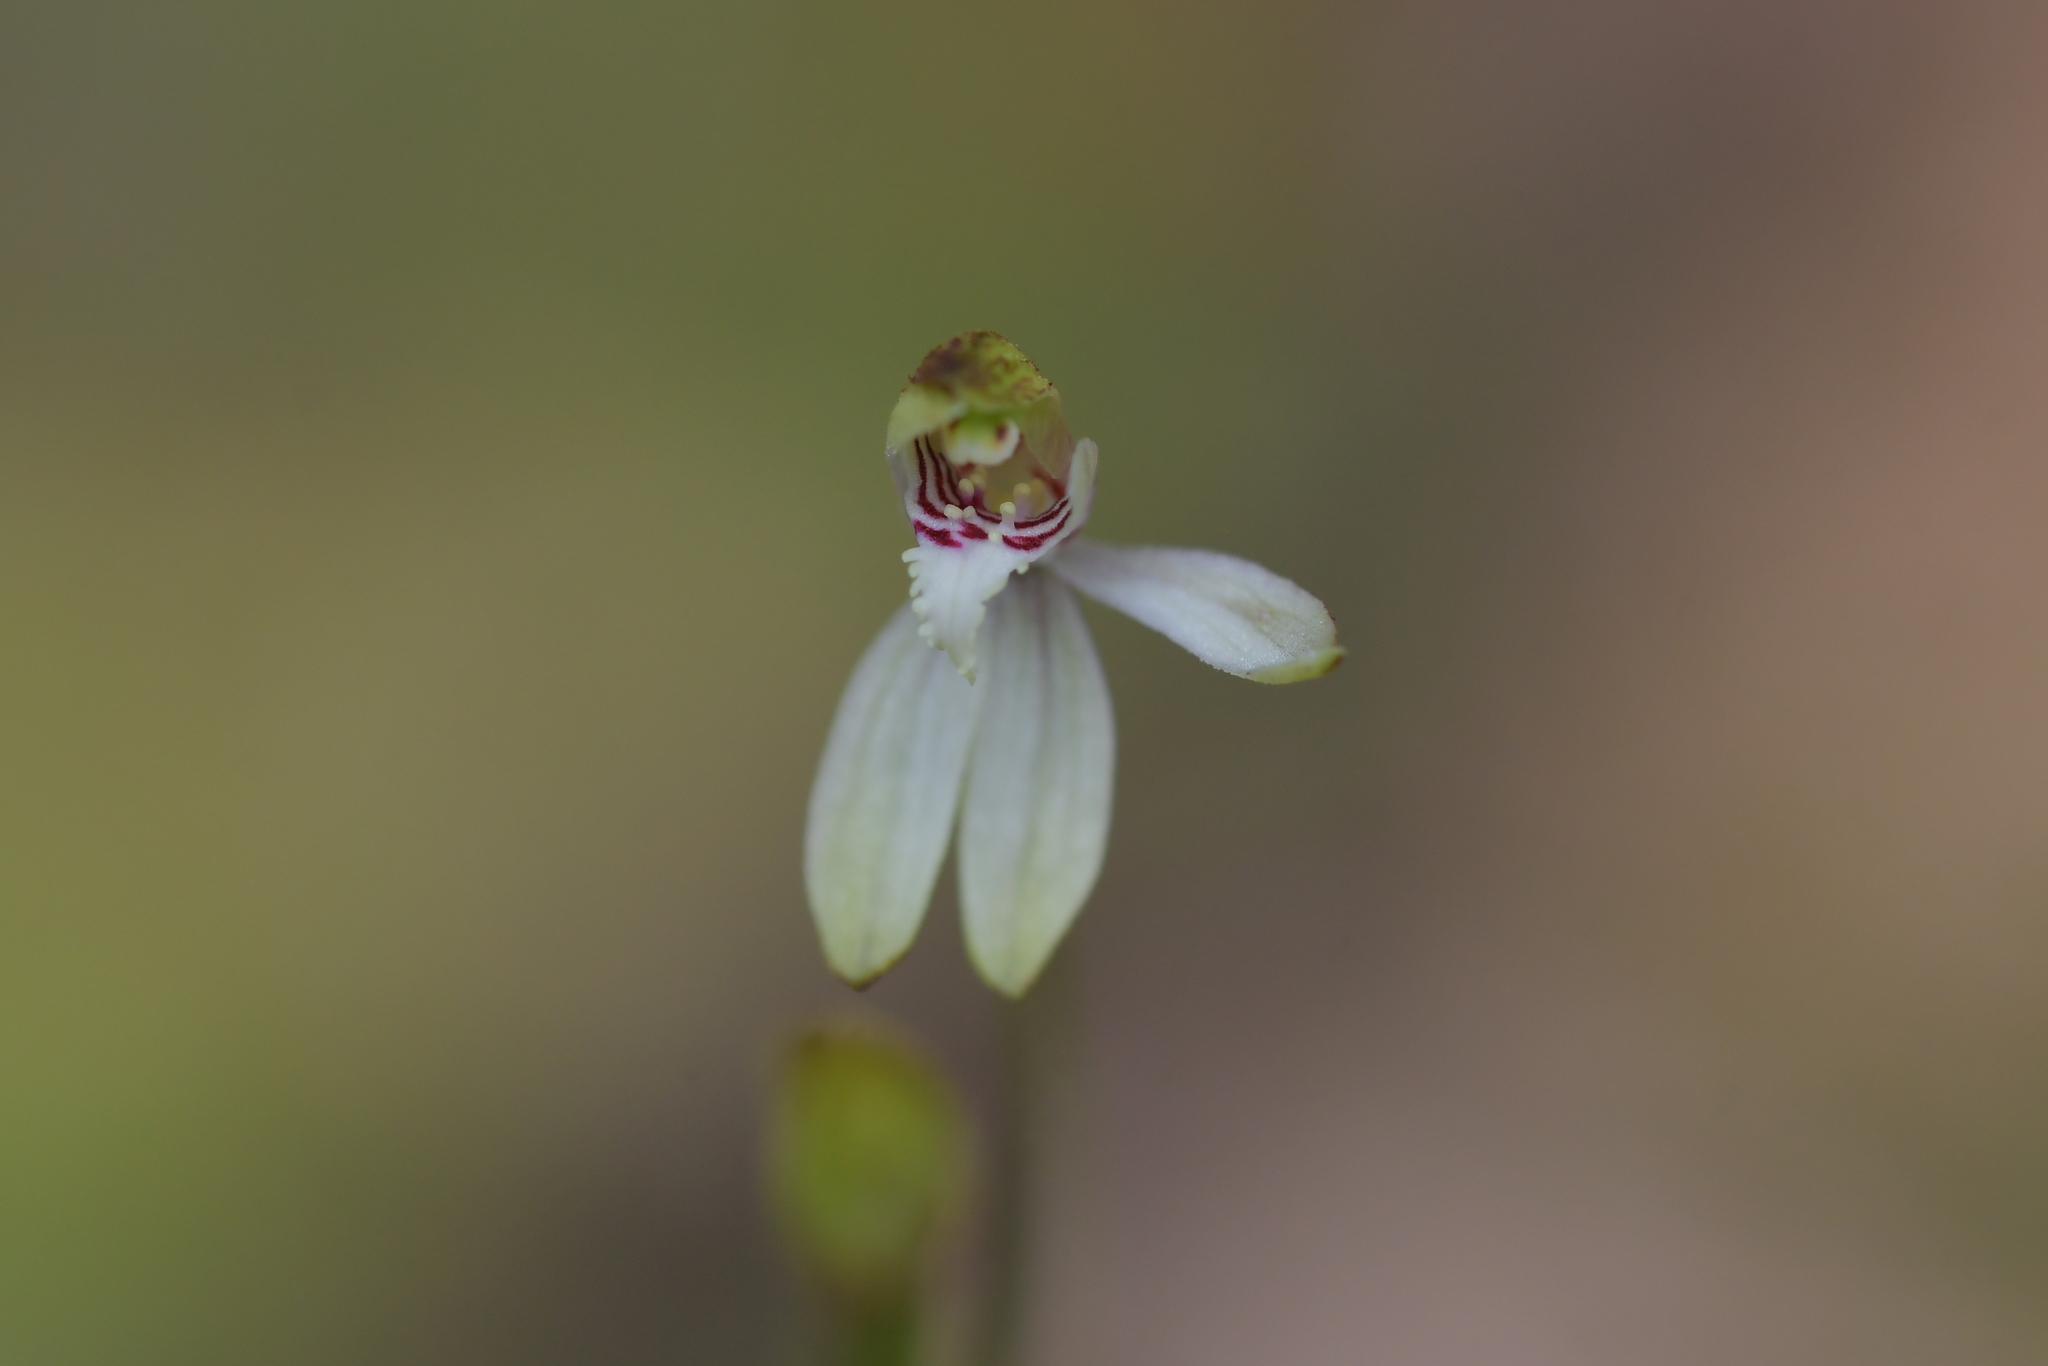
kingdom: Plantae
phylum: Tracheophyta
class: Liliopsida
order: Asparagales
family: Orchidaceae
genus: Caladenia
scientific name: Caladenia chlorostyla
